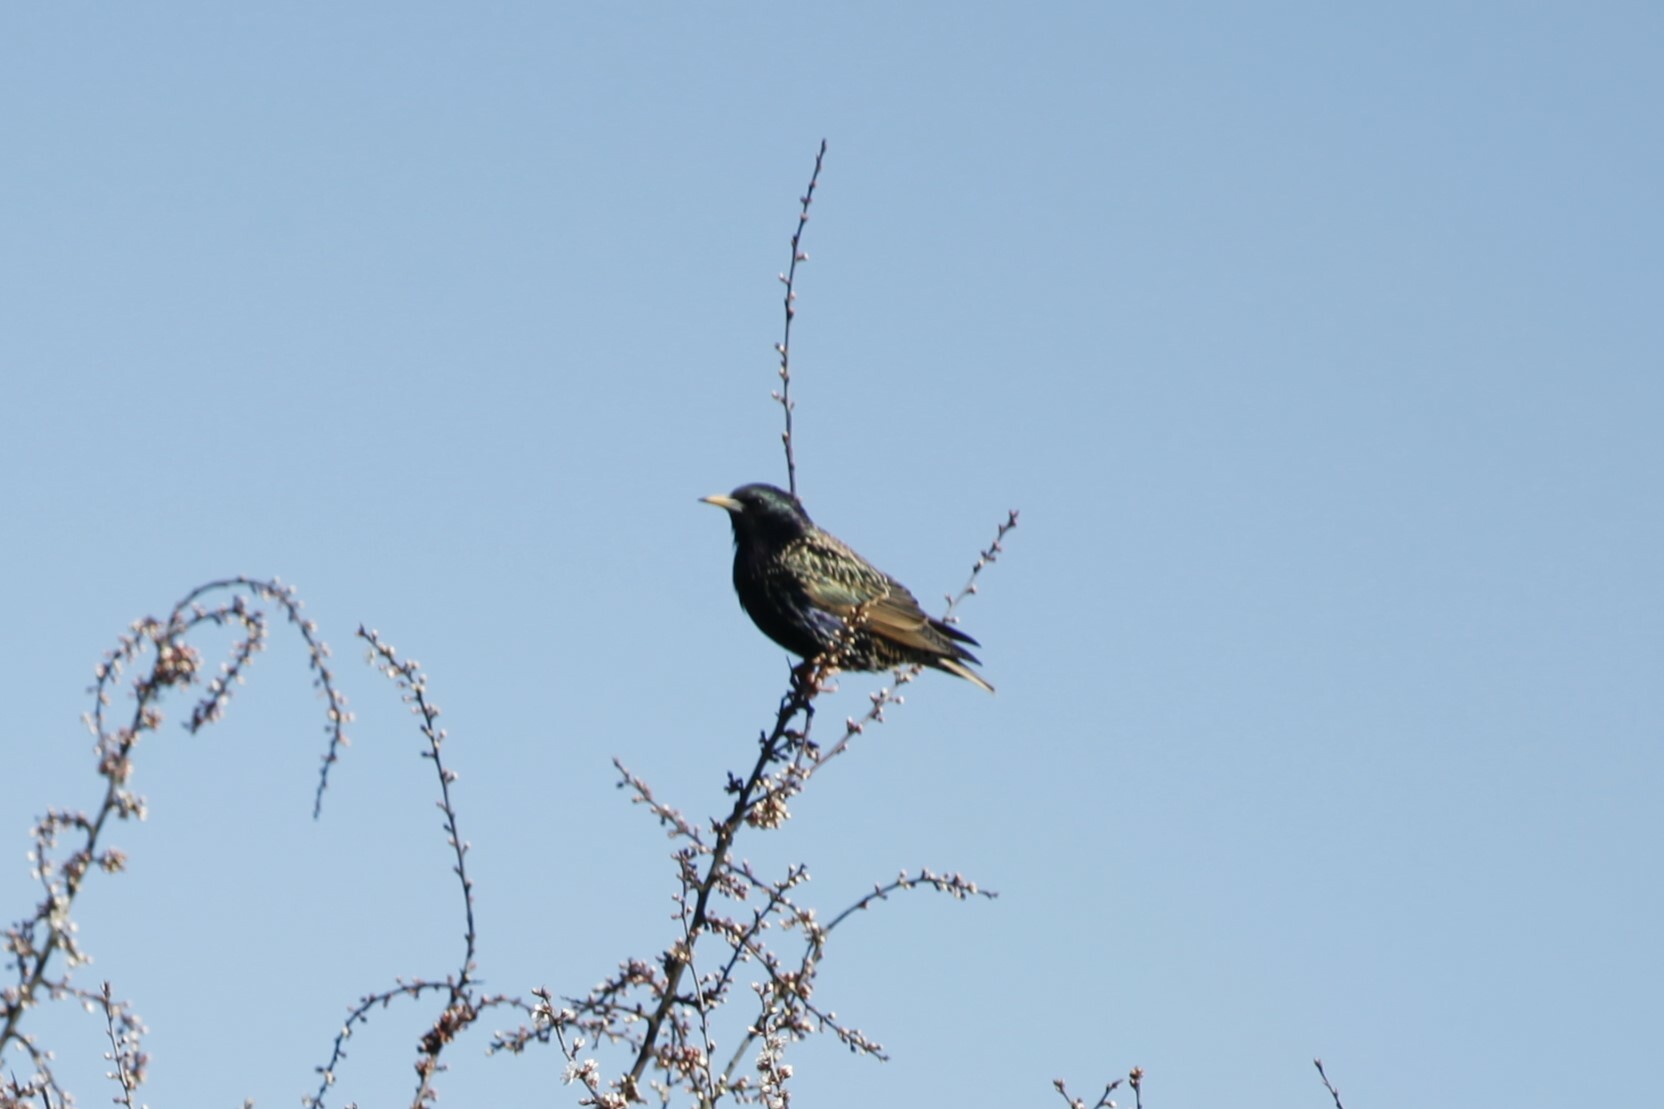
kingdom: Animalia
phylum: Chordata
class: Aves
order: Passeriformes
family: Sturnidae
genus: Sturnus
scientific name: Sturnus vulgaris
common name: Common starling
